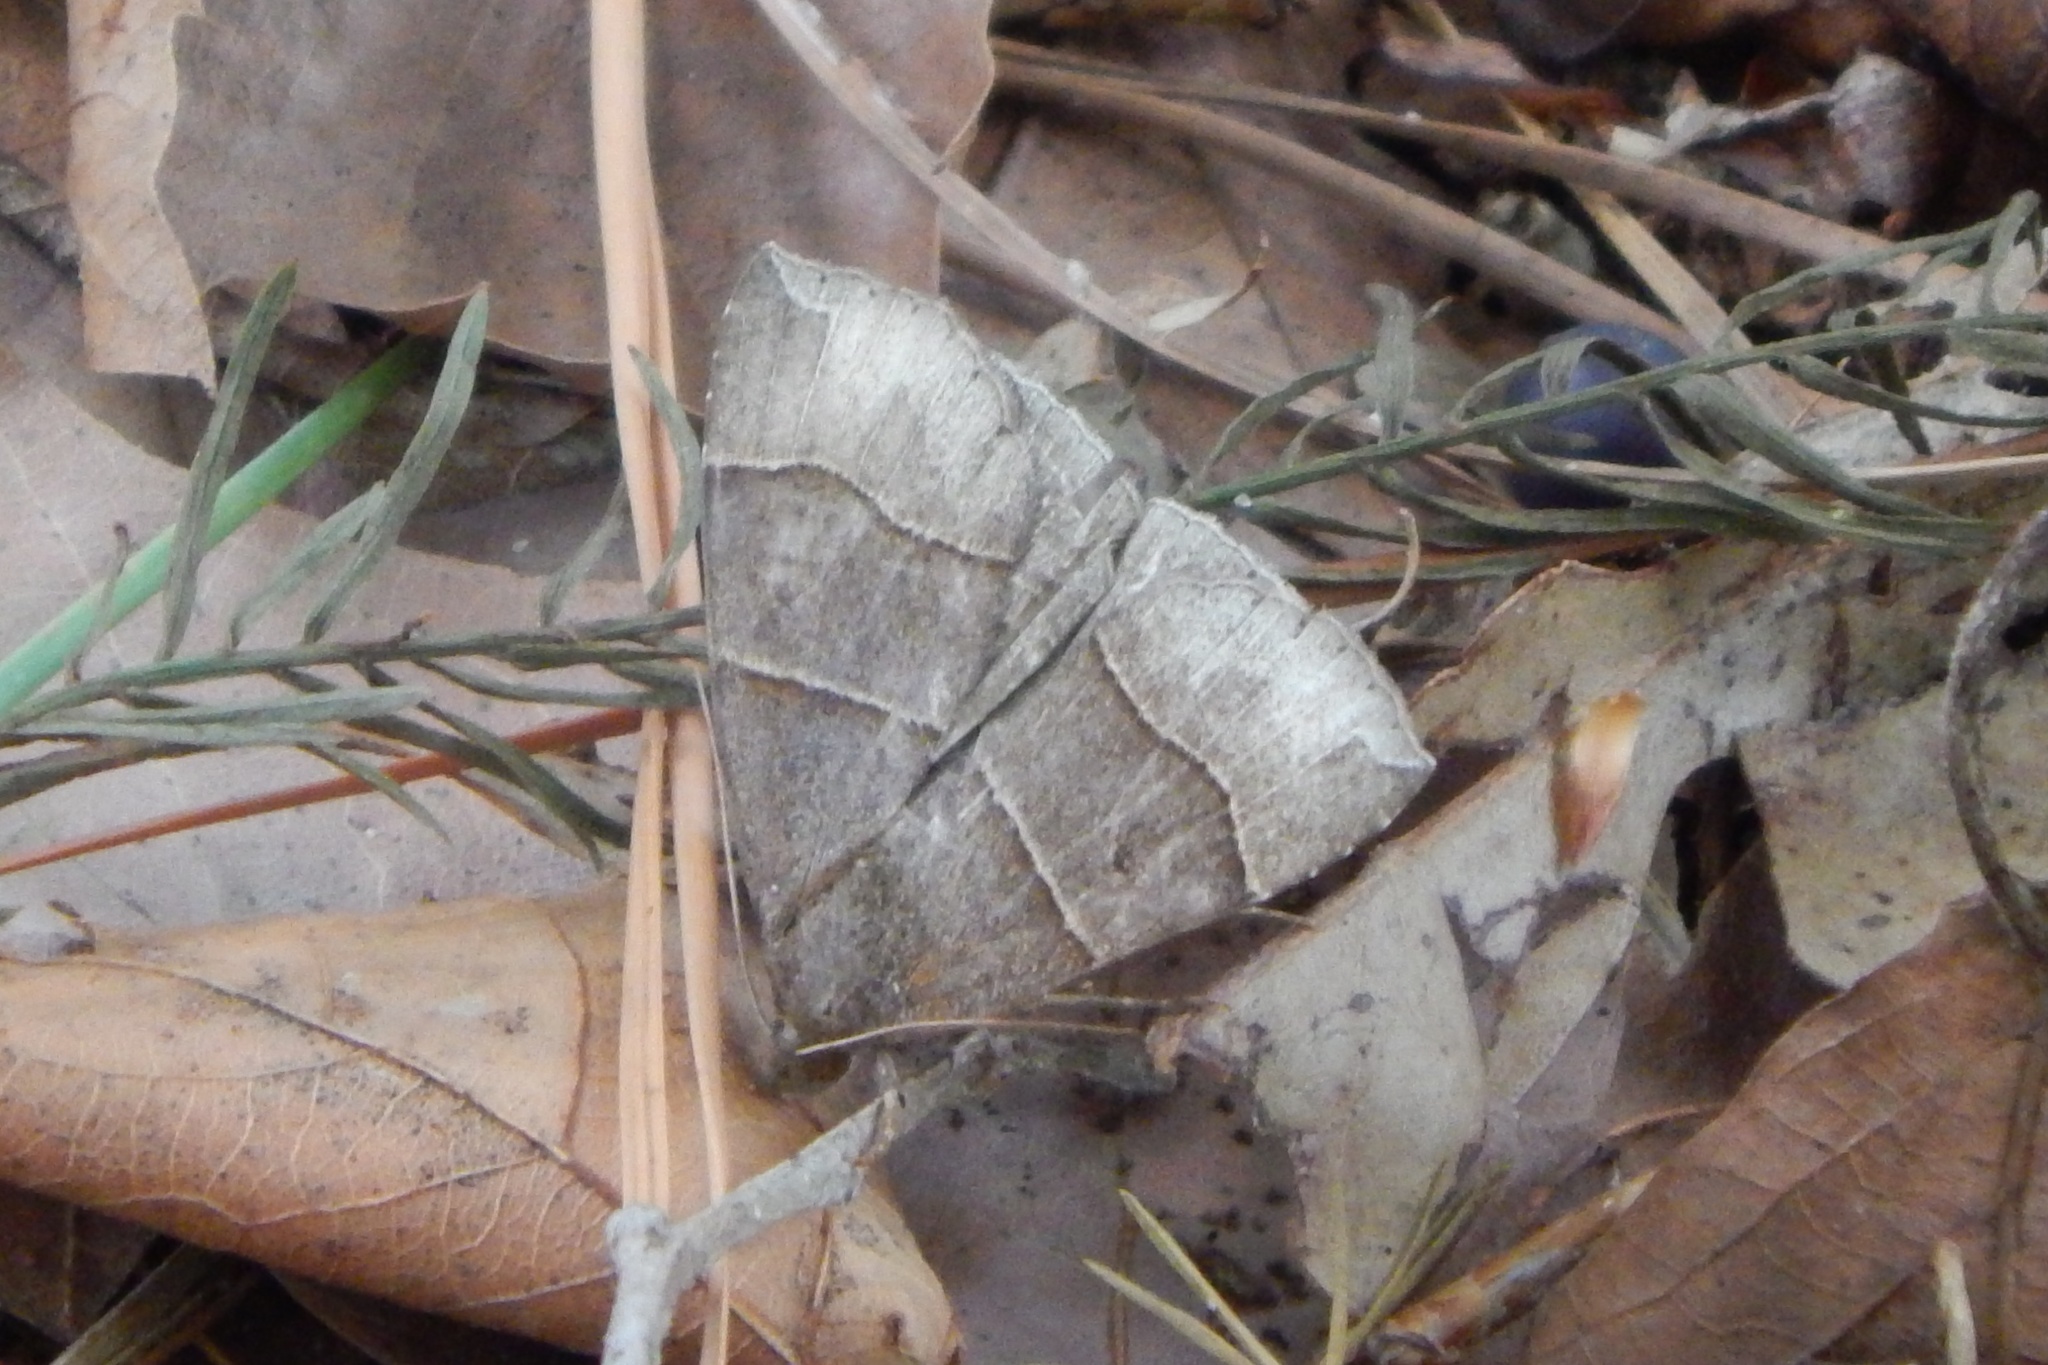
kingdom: Animalia
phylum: Arthropoda
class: Insecta
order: Lepidoptera
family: Erebidae
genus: Parallelia
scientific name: Parallelia bistriaris
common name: Maple looper moth
